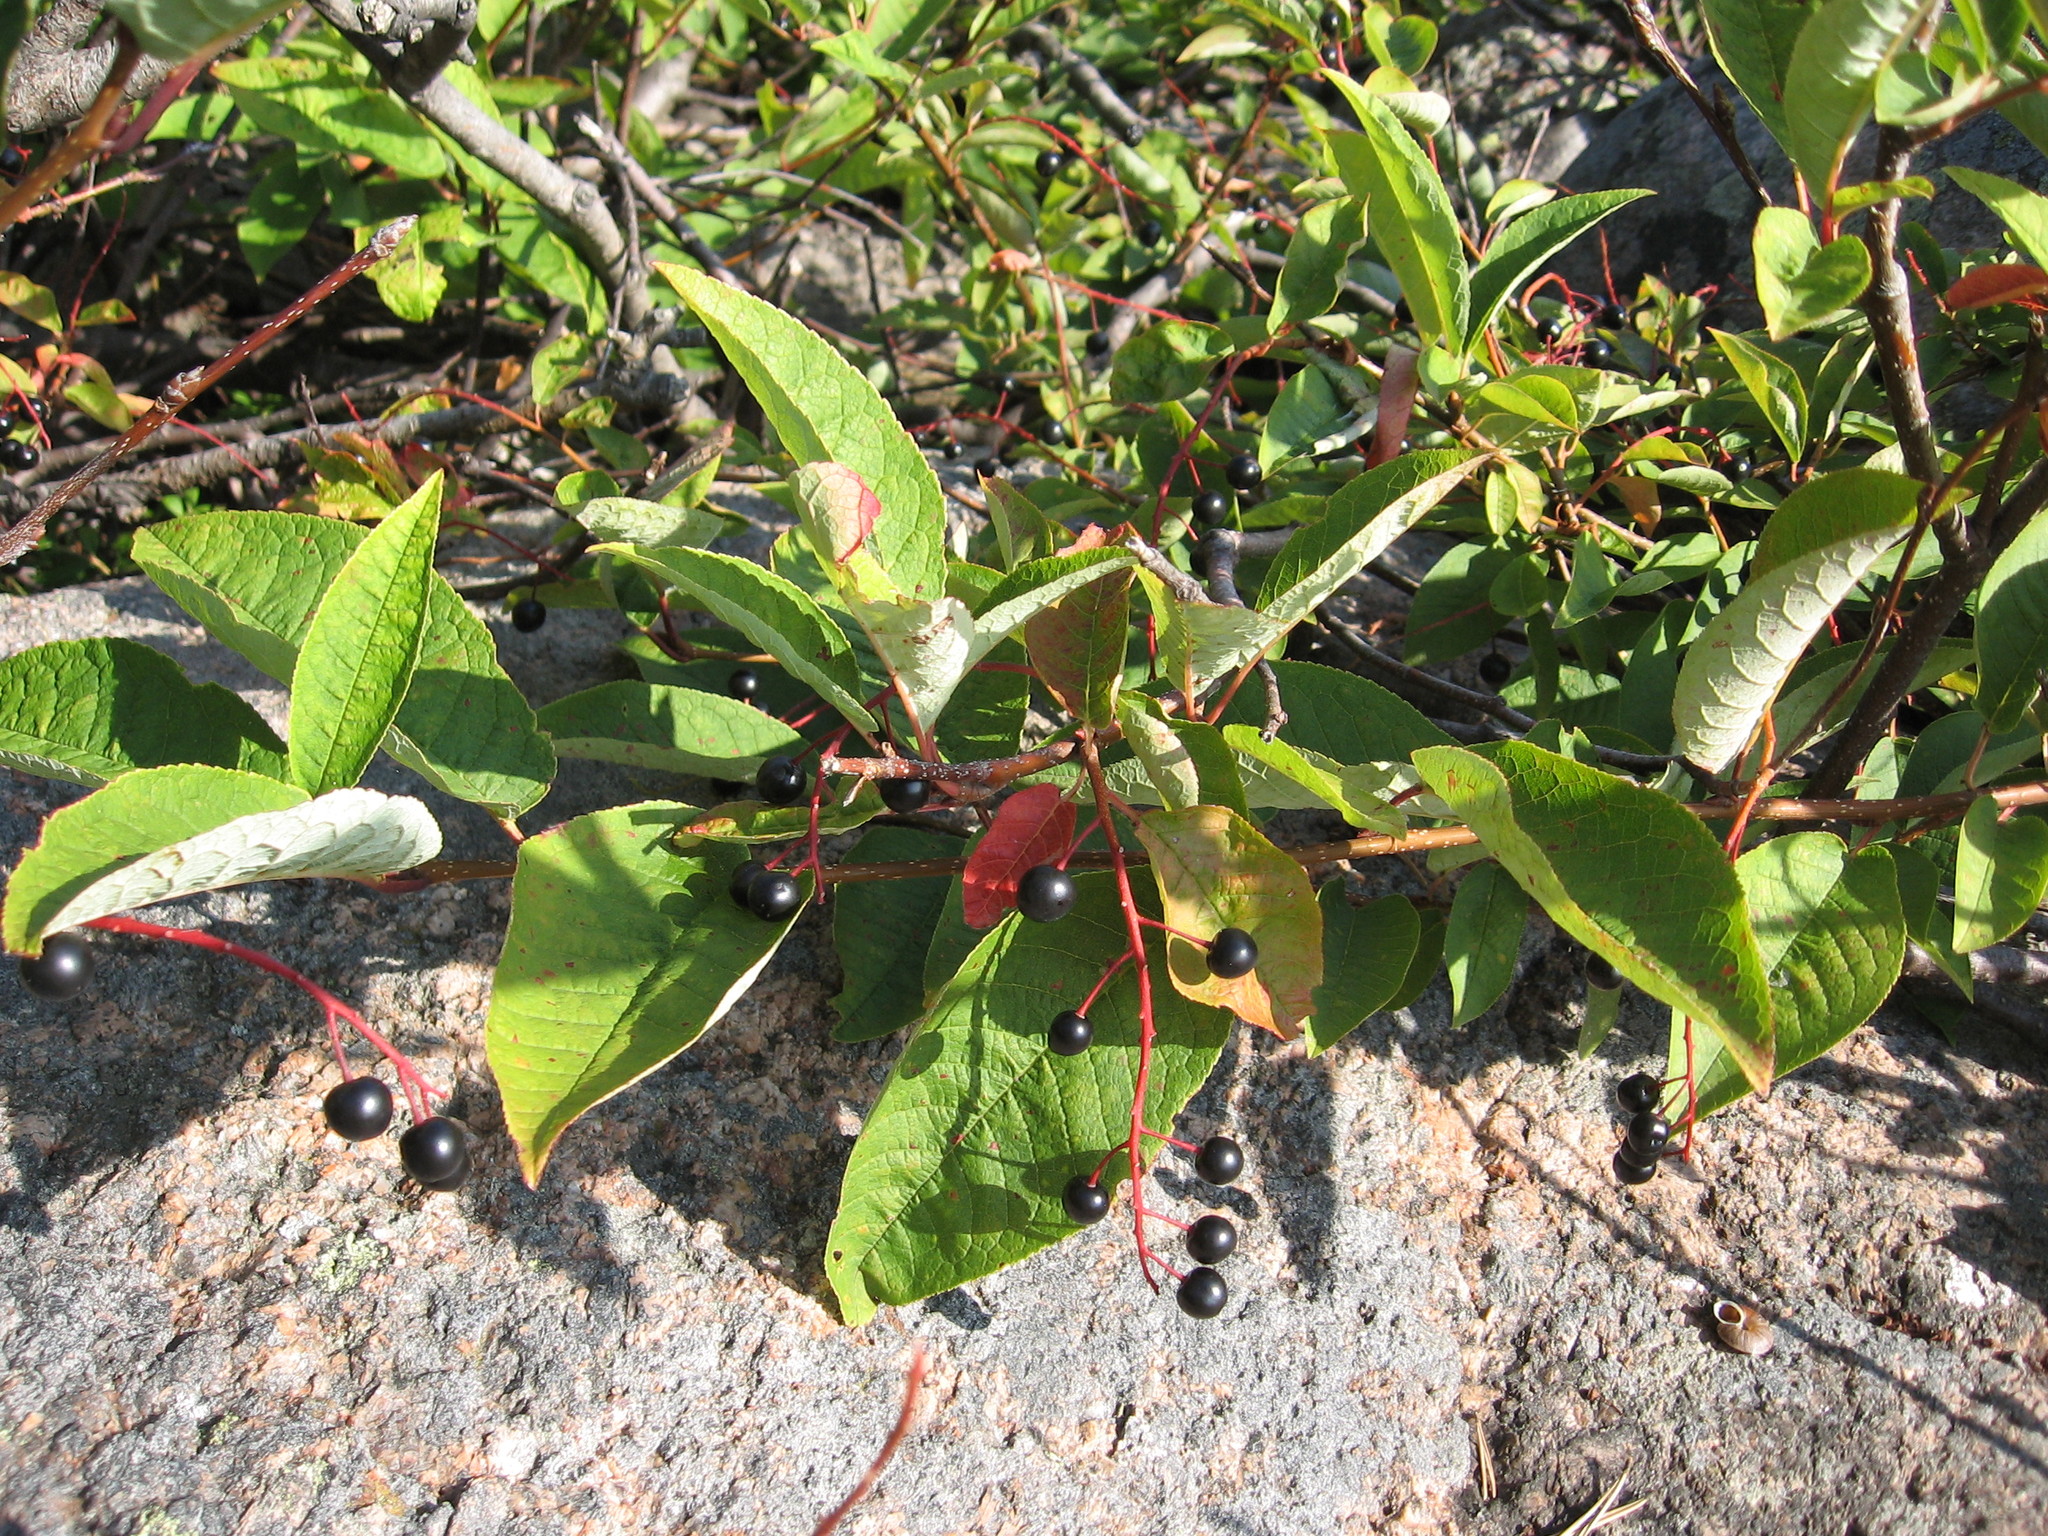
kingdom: Plantae
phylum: Tracheophyta
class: Magnoliopsida
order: Rosales
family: Rosaceae
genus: Prunus
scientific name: Prunus padus
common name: Bird cherry
